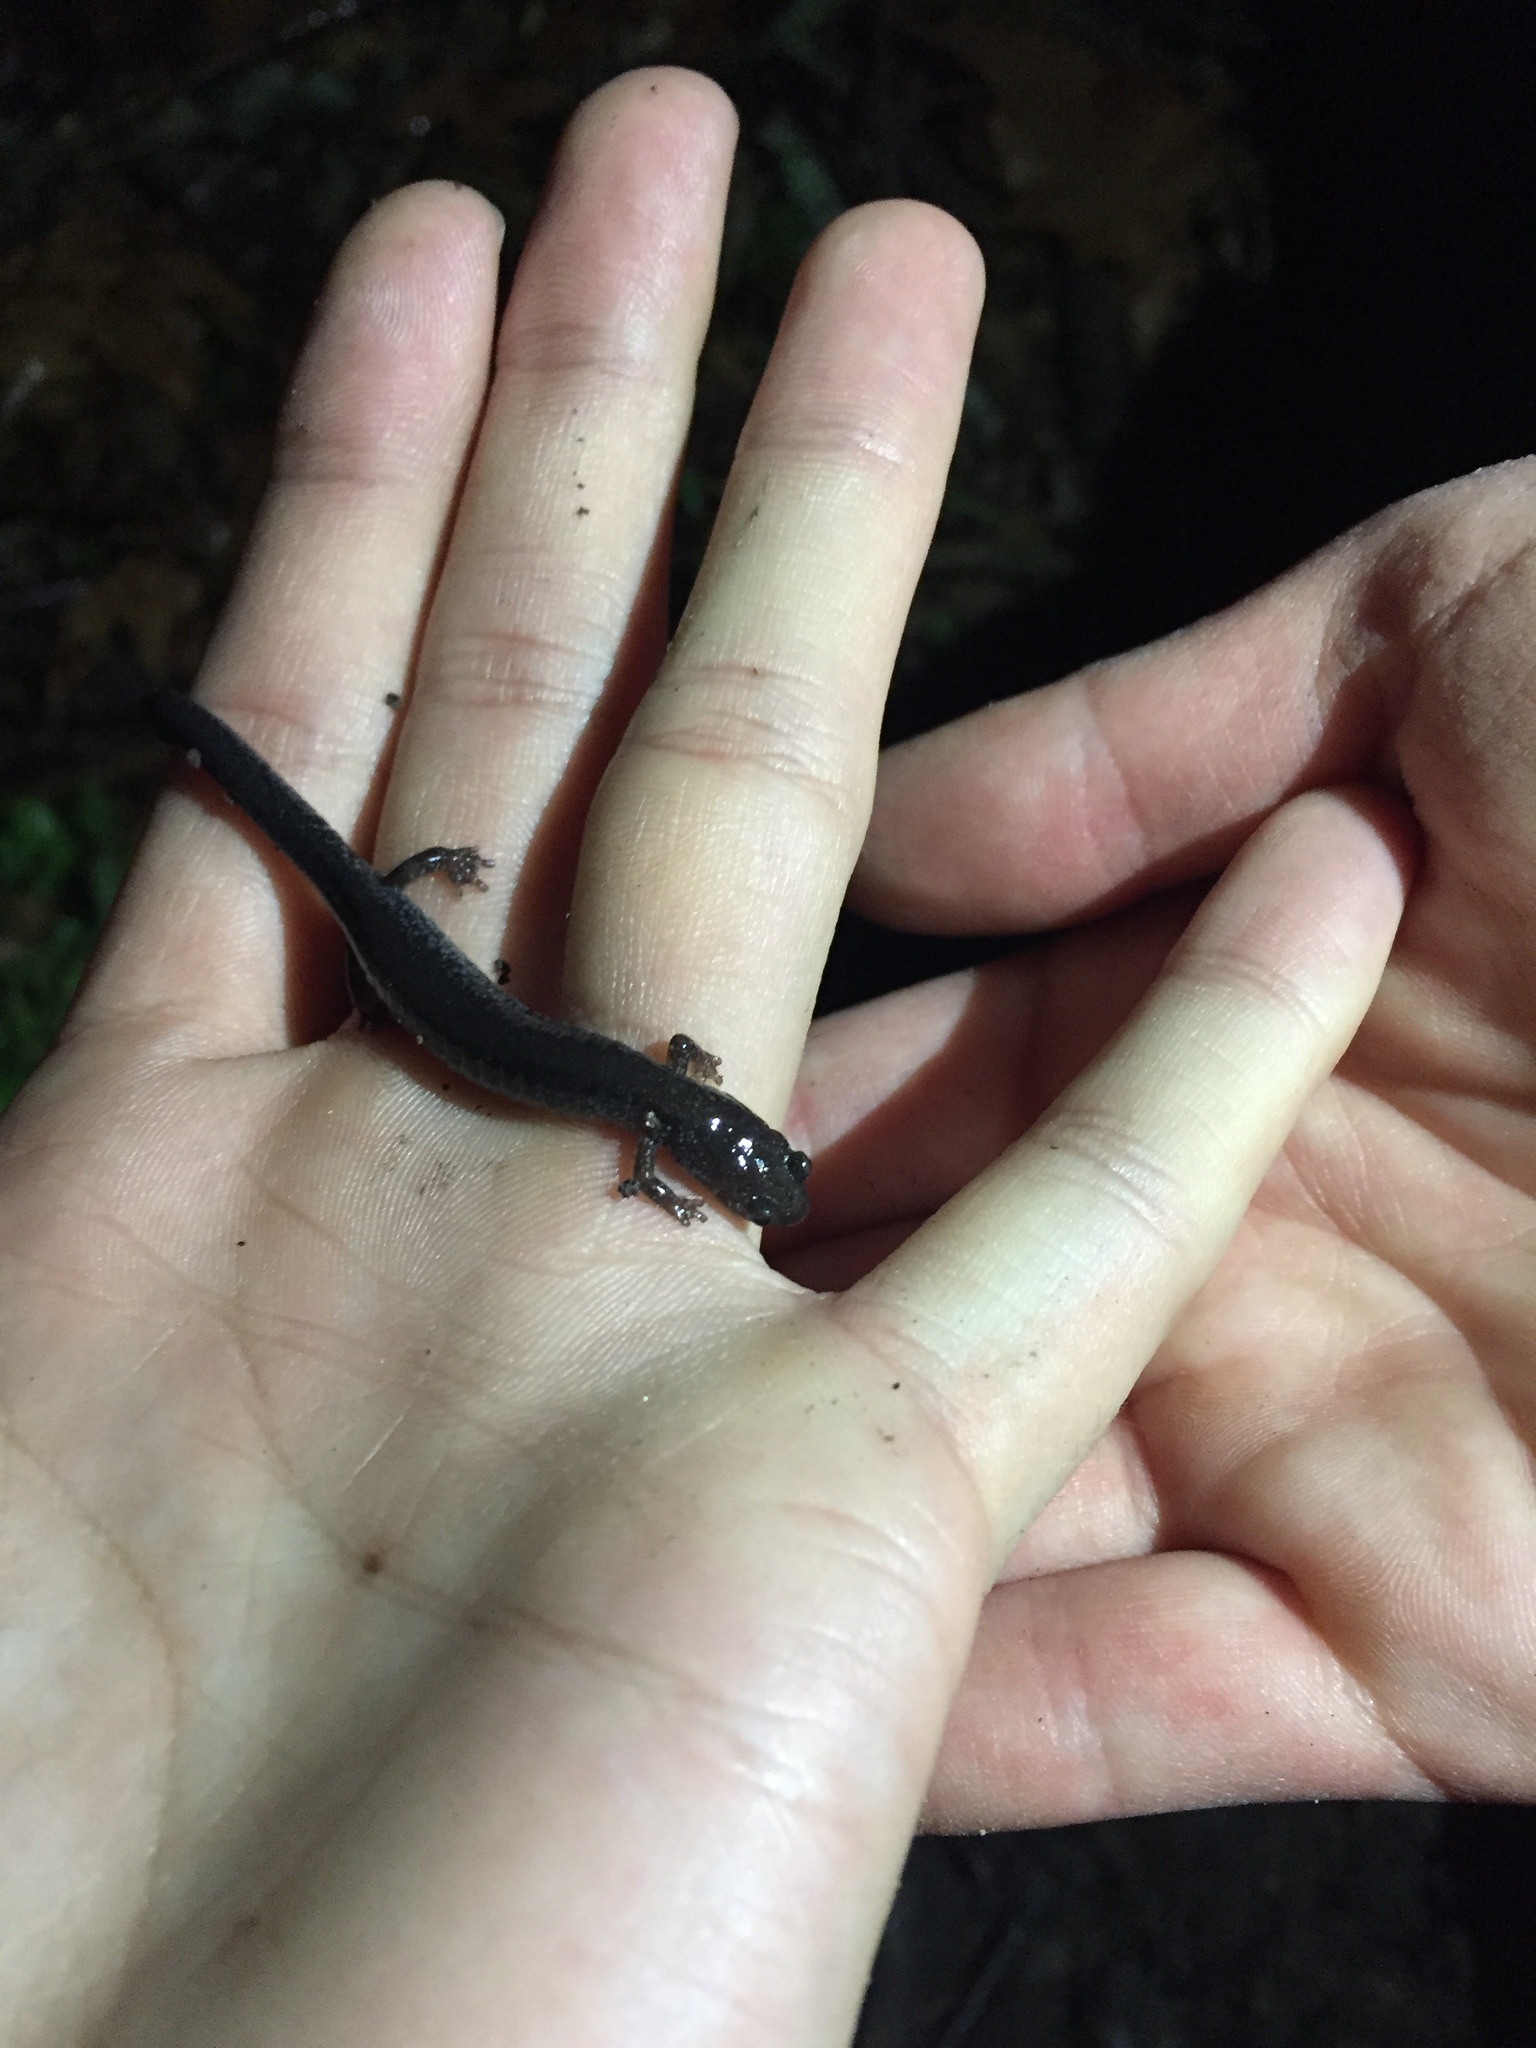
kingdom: Animalia
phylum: Chordata
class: Amphibia
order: Caudata
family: Plethodontidae
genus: Plethodon
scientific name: Plethodon cinereus
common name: Redback salamander
